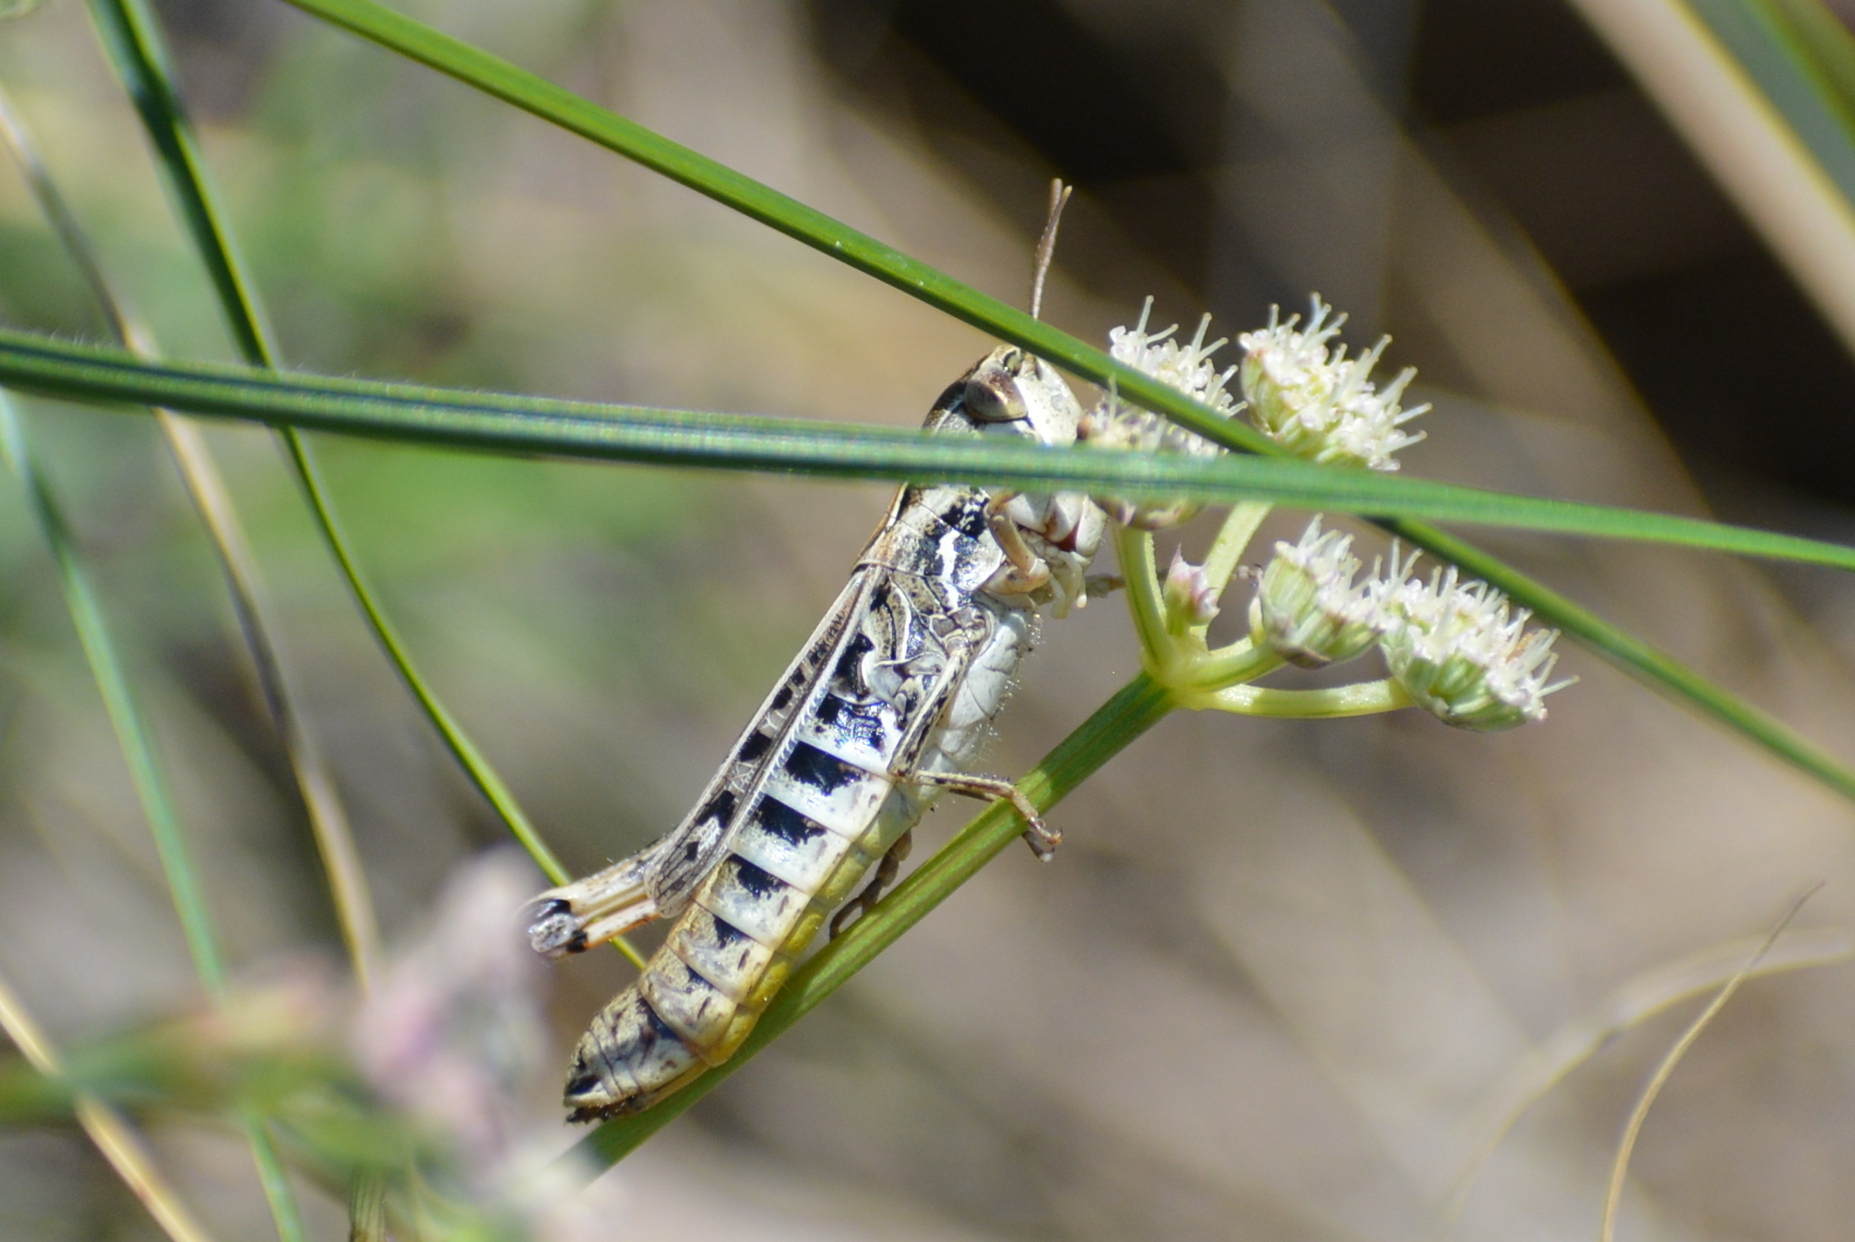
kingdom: Animalia
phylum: Arthropoda
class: Insecta
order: Orthoptera
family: Acrididae
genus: Stenobothrus
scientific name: Stenobothrus nigromaculatus
